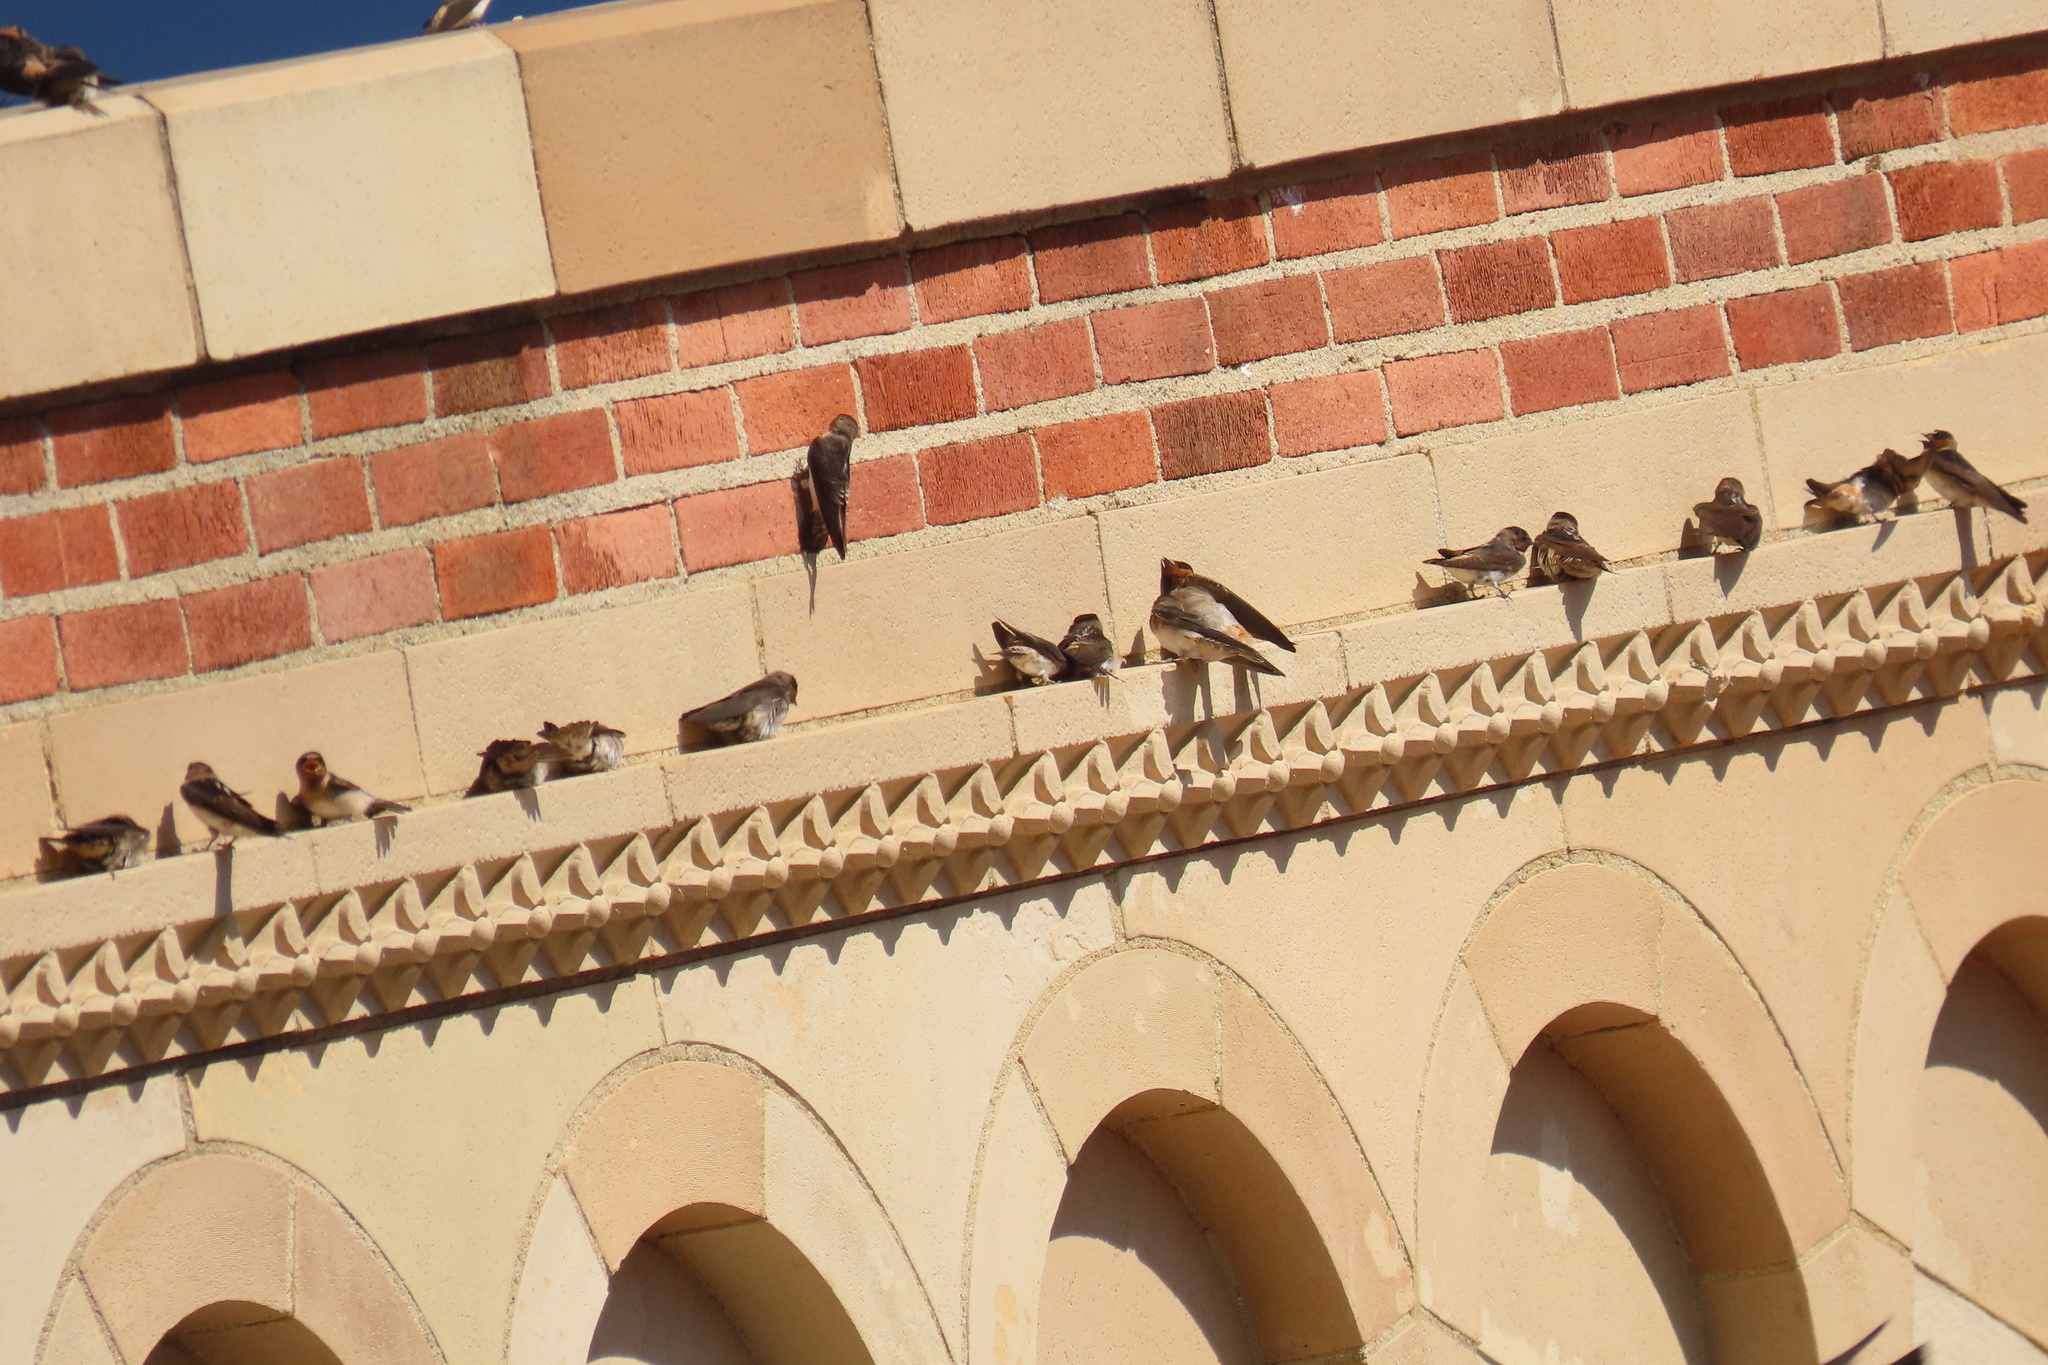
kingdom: Animalia
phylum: Chordata
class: Aves
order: Passeriformes
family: Hirundinidae
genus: Petrochelidon
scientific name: Petrochelidon pyrrhonota
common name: American cliff swallow
